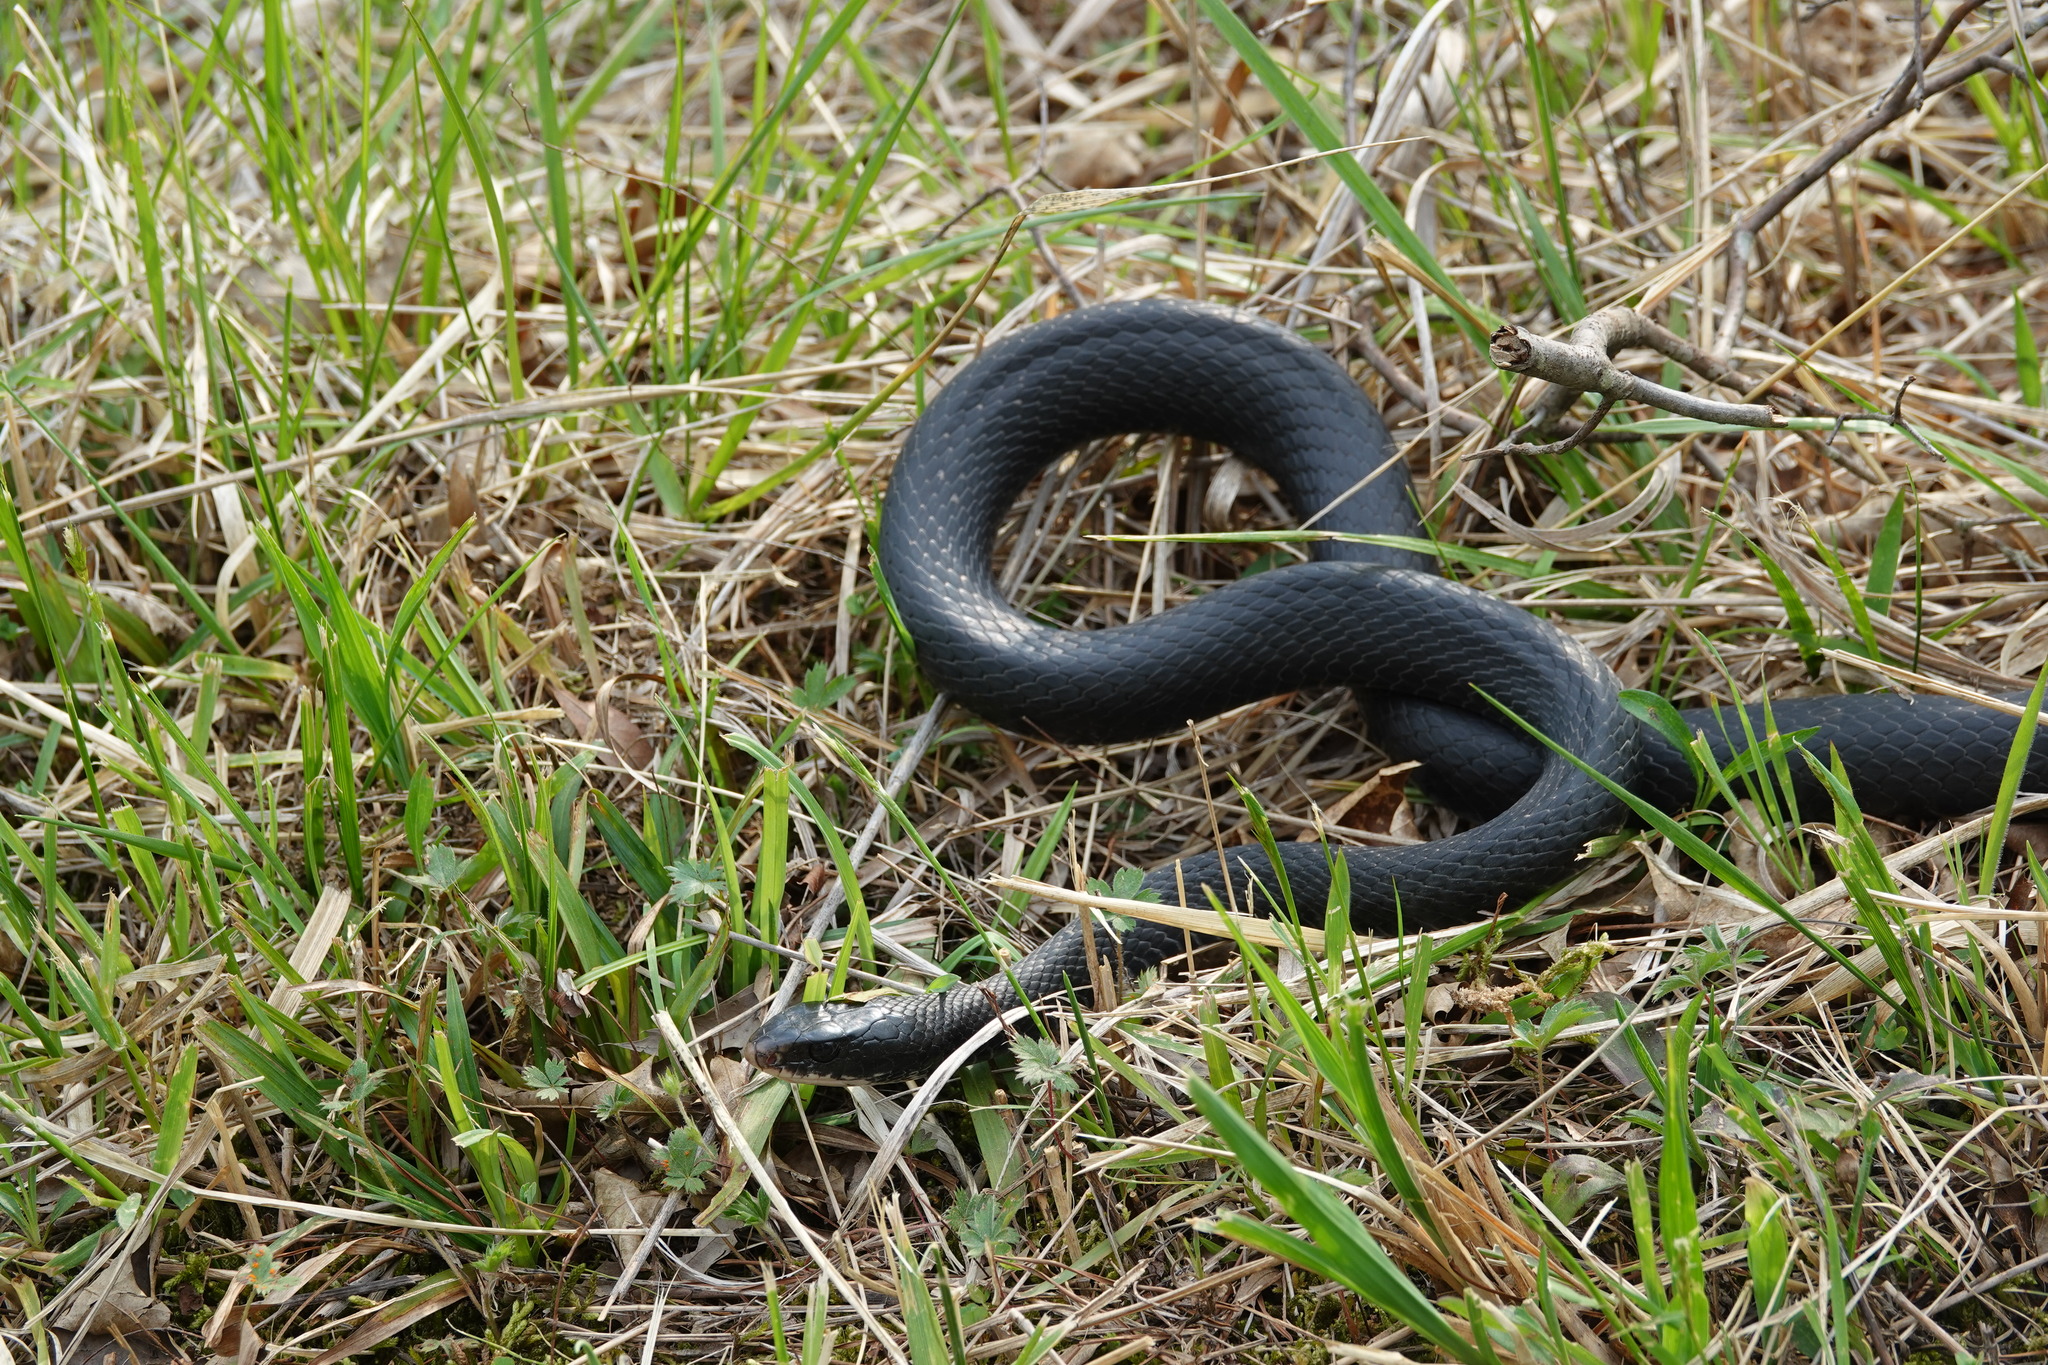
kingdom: Animalia
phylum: Chordata
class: Squamata
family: Colubridae
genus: Coluber
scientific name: Coluber constrictor
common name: Eastern racer
